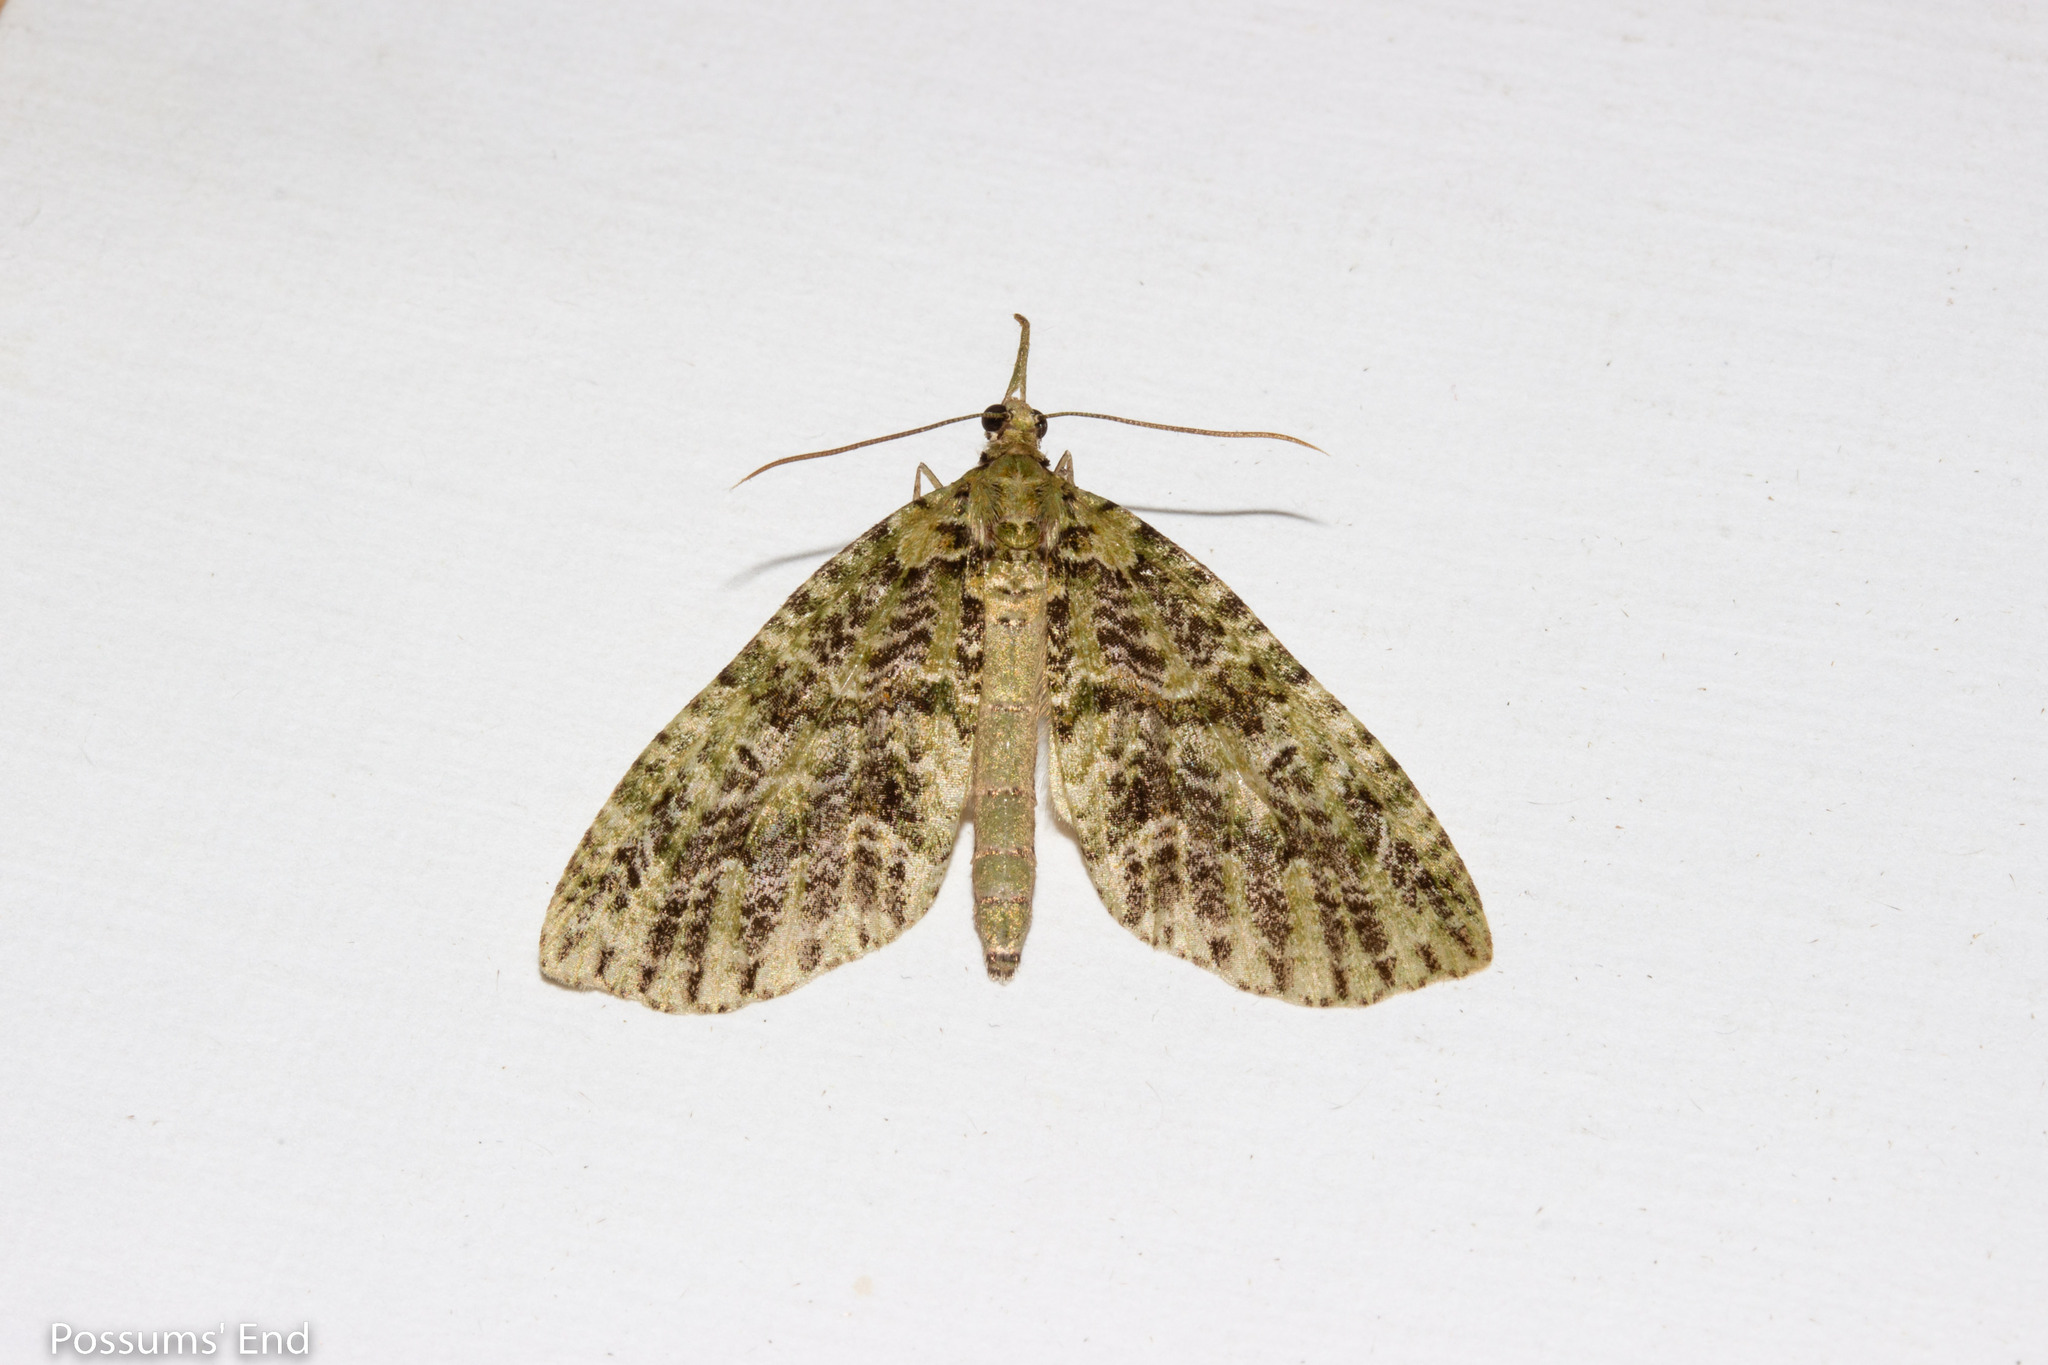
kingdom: Animalia
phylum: Arthropoda
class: Insecta
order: Lepidoptera
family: Geometridae
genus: Tatosoma
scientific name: Tatosoma tipulata
